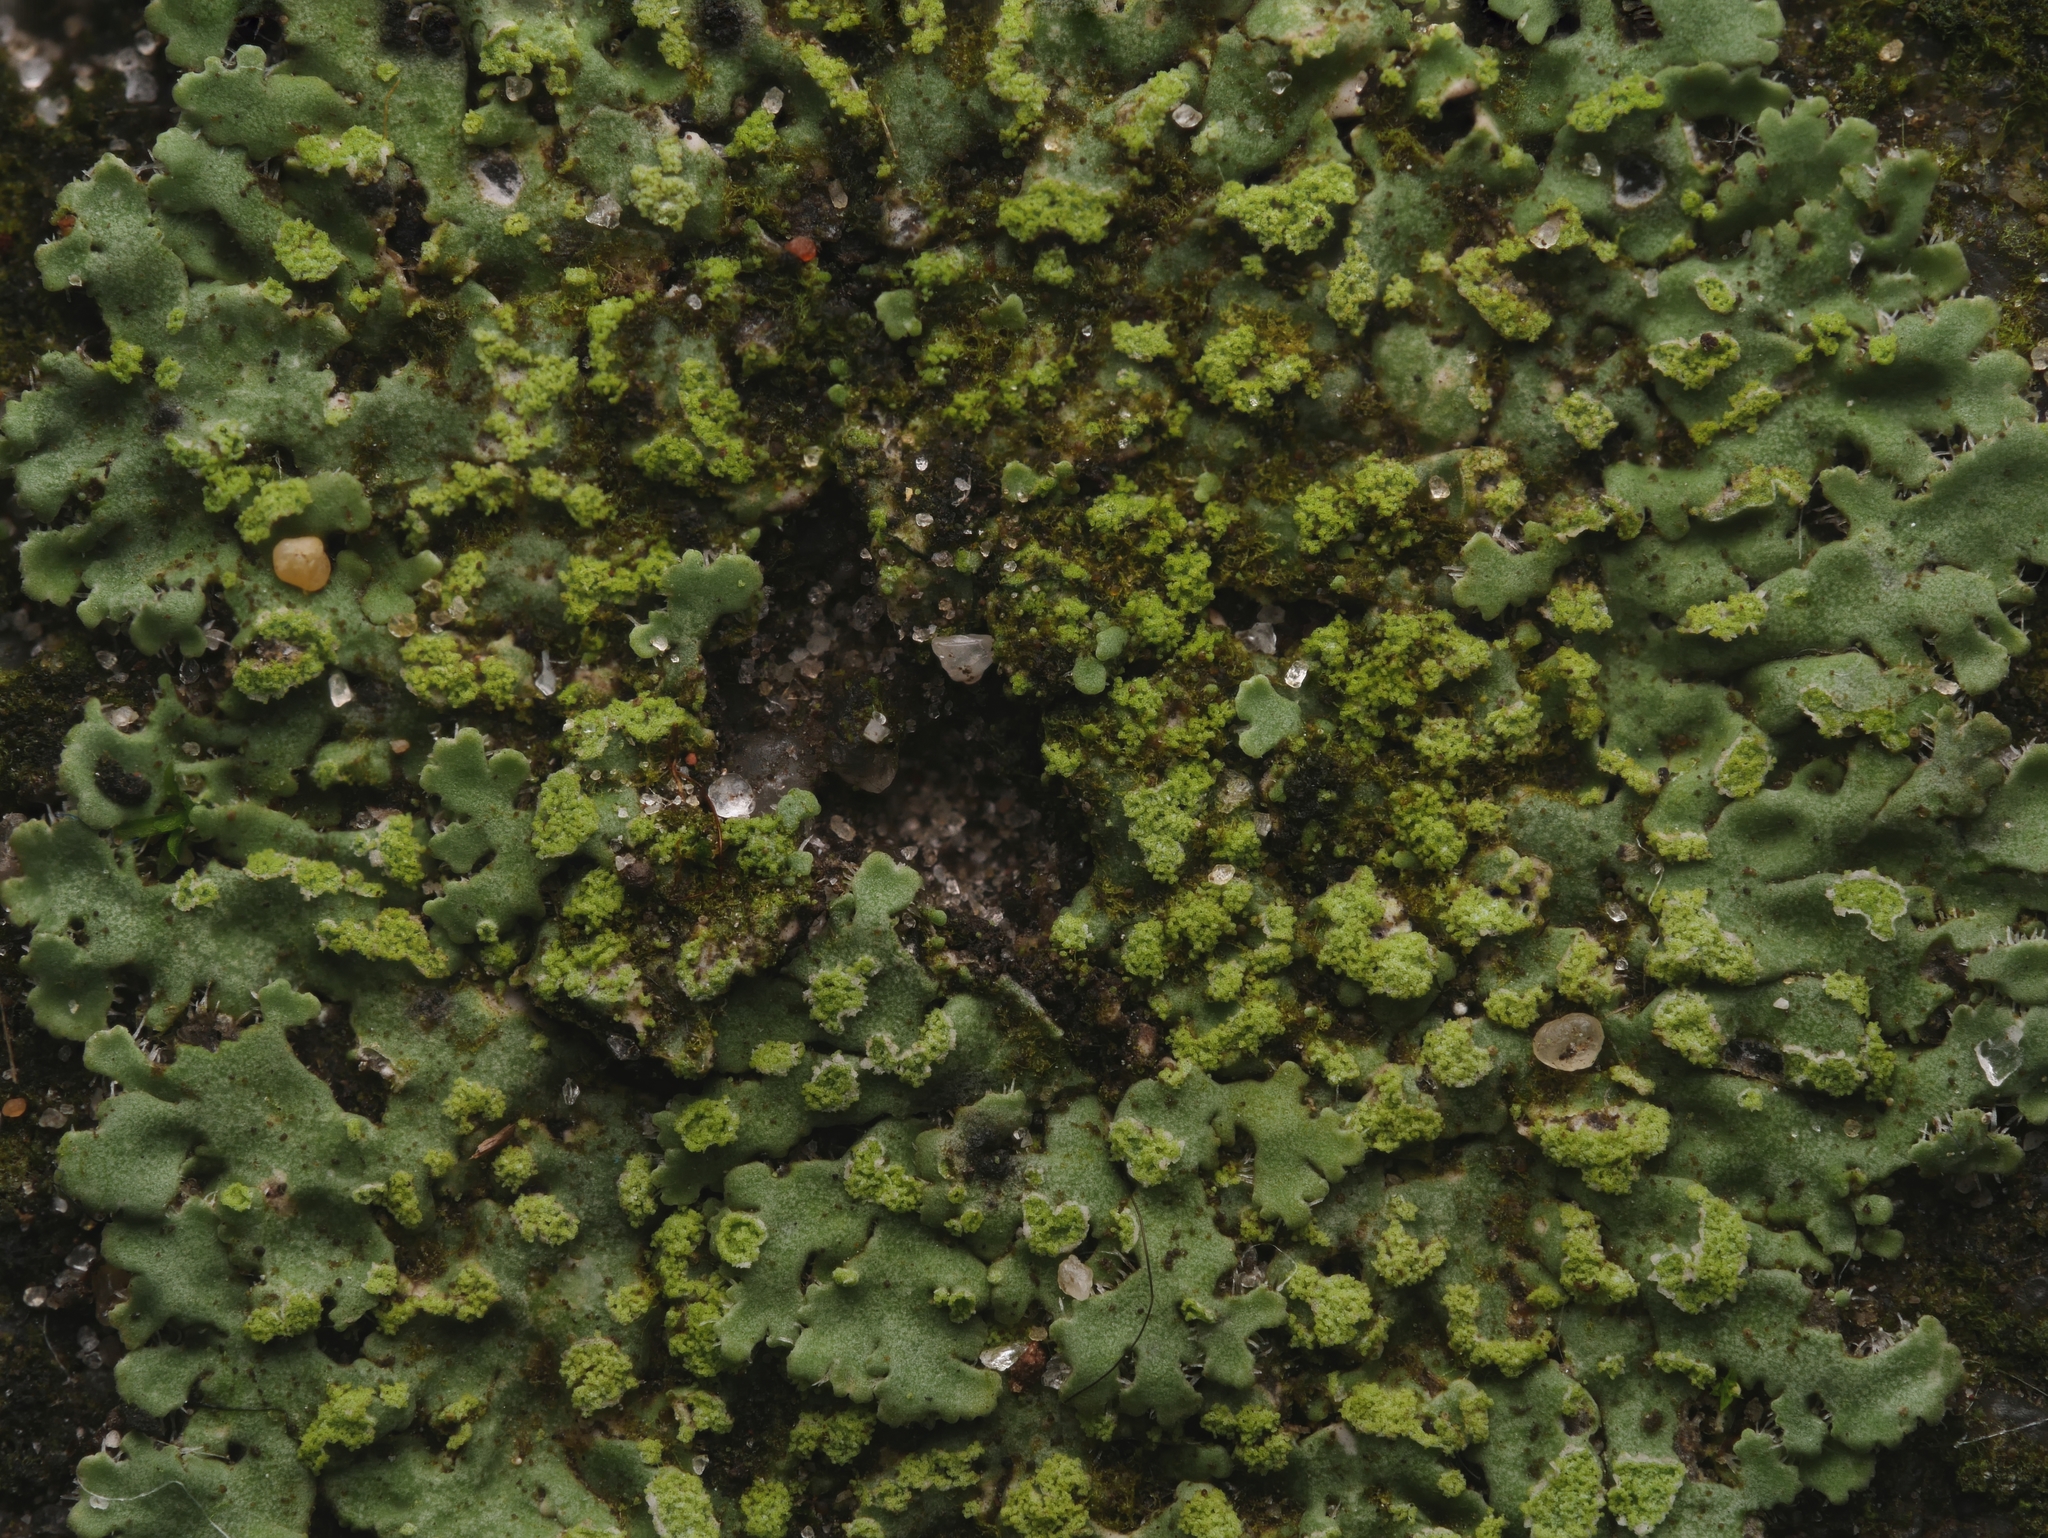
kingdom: Fungi
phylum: Ascomycota
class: Lecanoromycetes
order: Caliciales
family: Physciaceae
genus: Phaeophyscia
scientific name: Phaeophyscia orbicularis
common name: Mealy shadow lichen
